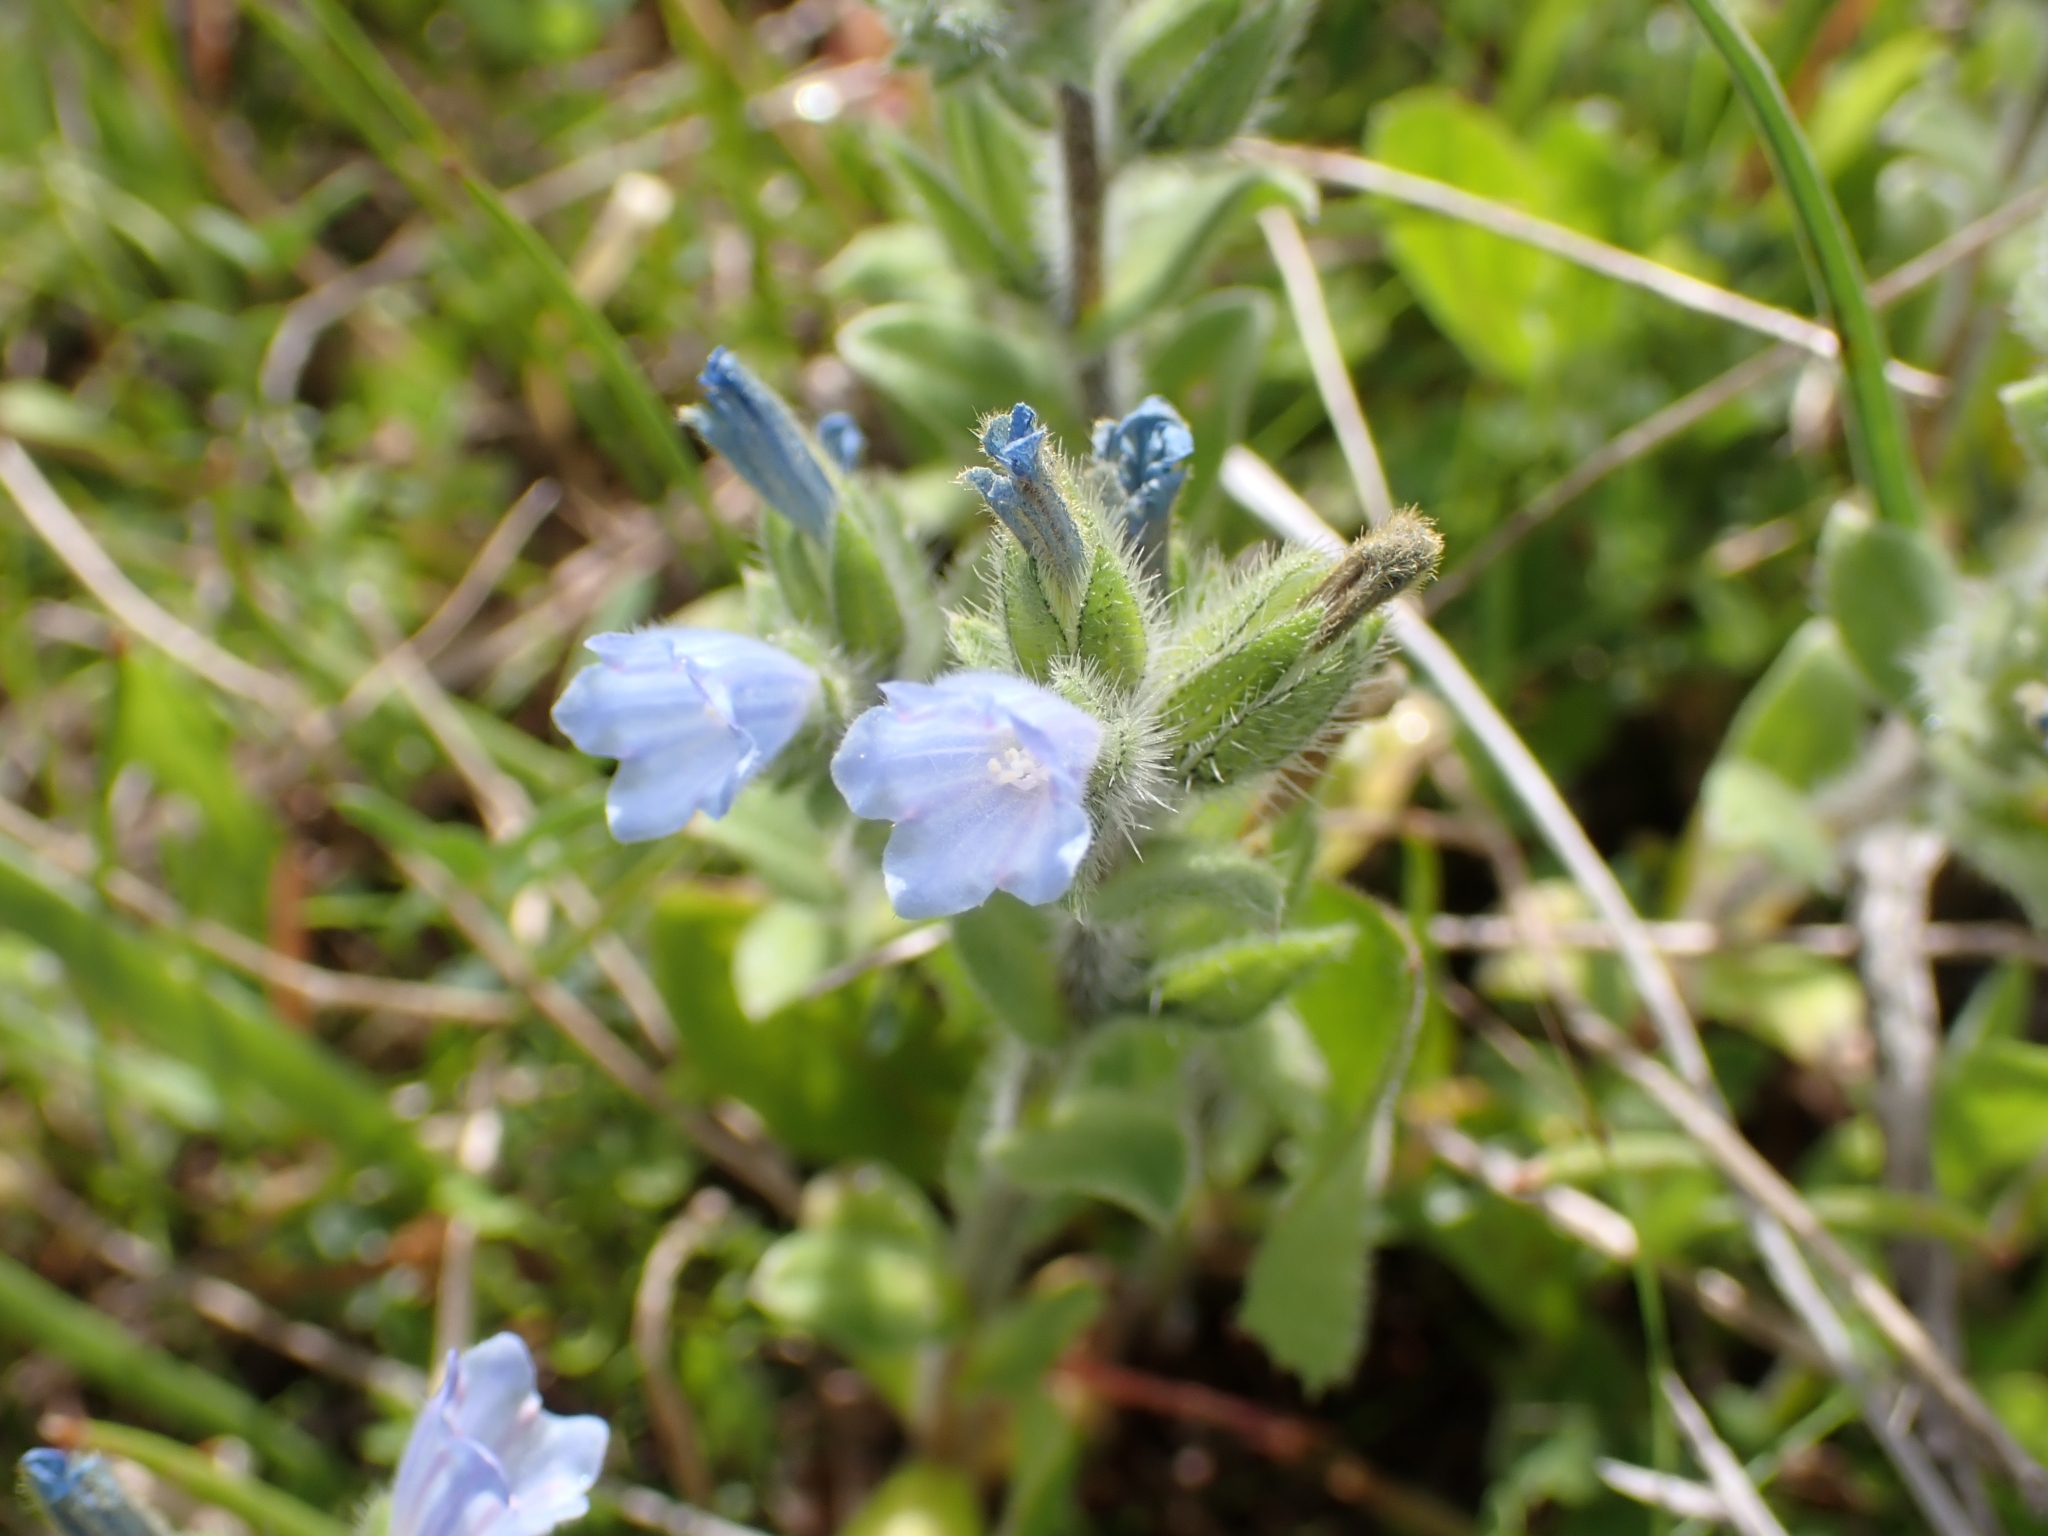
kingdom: Plantae
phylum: Tracheophyta
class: Magnoliopsida
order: Boraginales
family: Boraginaceae
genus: Echium
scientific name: Echium parviflorum
